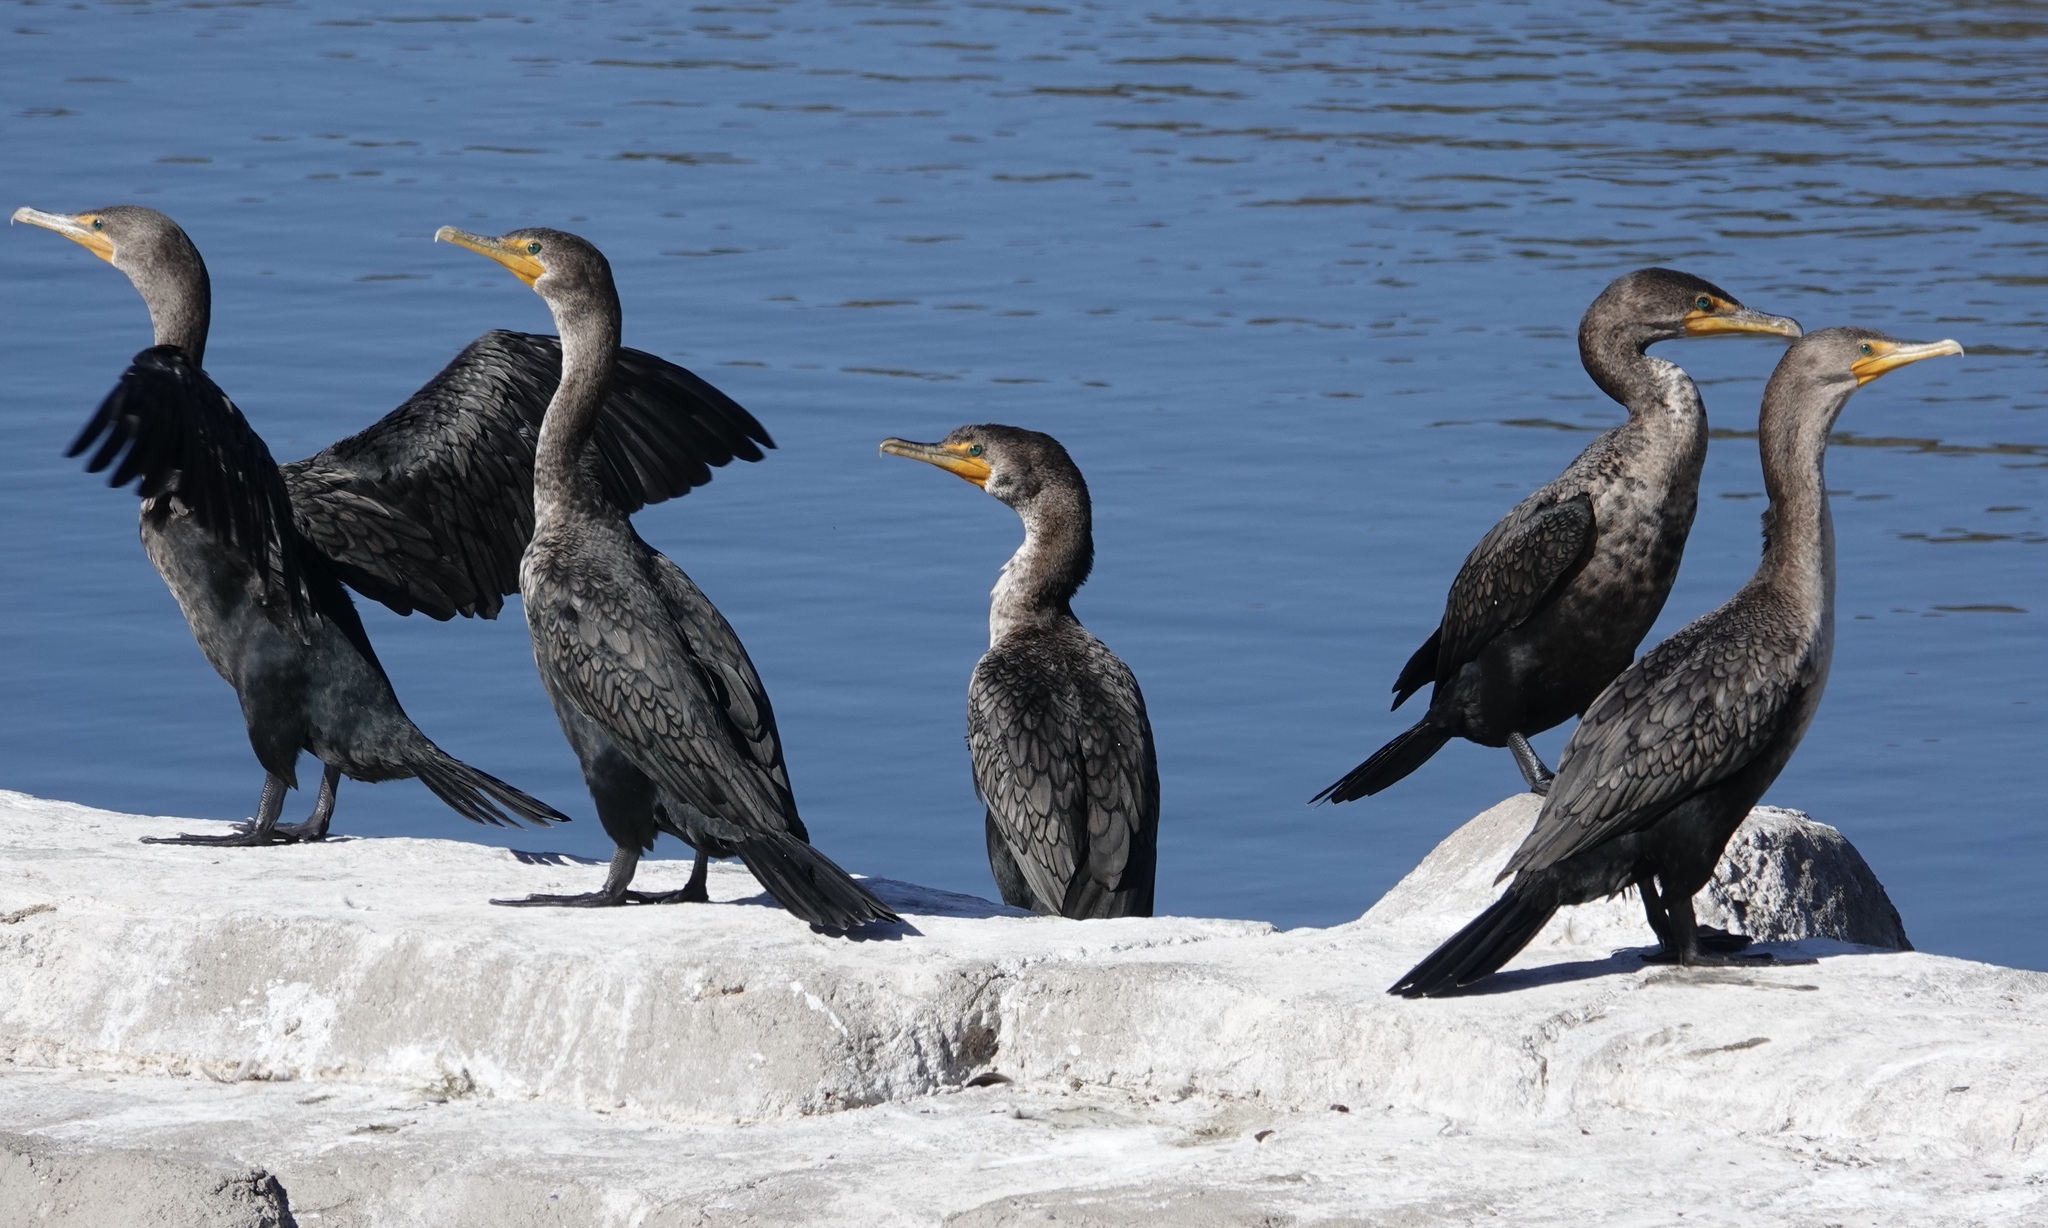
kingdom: Animalia
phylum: Chordata
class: Aves
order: Suliformes
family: Phalacrocoracidae
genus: Phalacrocorax
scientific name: Phalacrocorax auritus
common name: Double-crested cormorant
